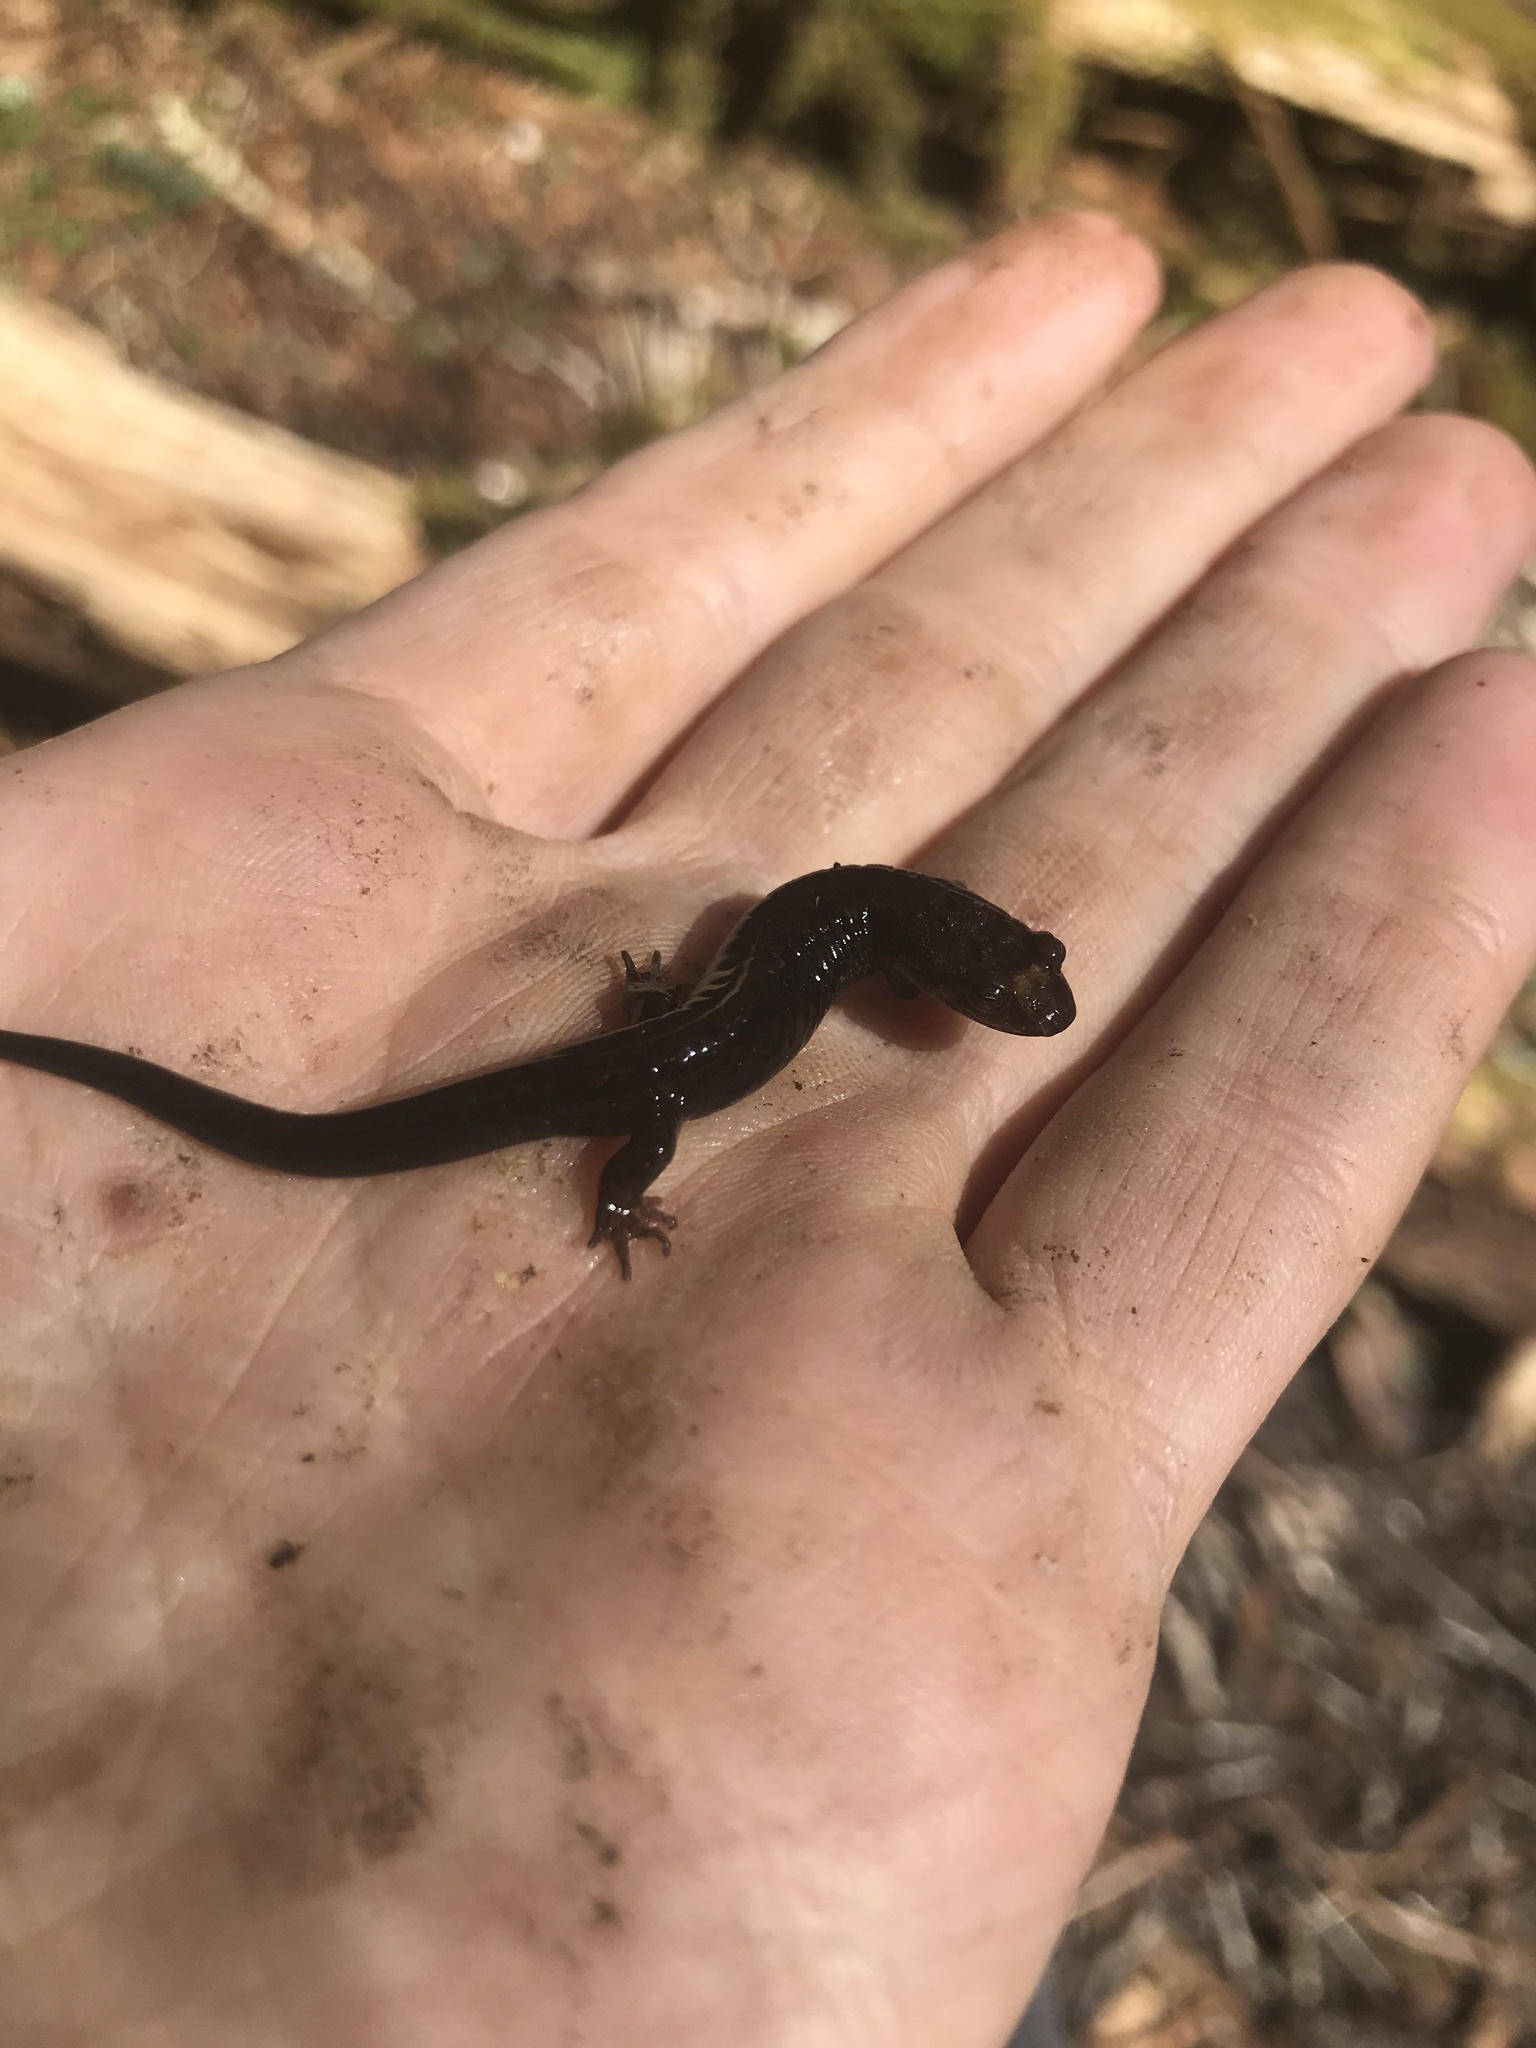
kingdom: Animalia
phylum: Chordata
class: Amphibia
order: Caudata
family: Plethodontidae
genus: Desmognathus
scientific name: Desmognathus adatsihi
